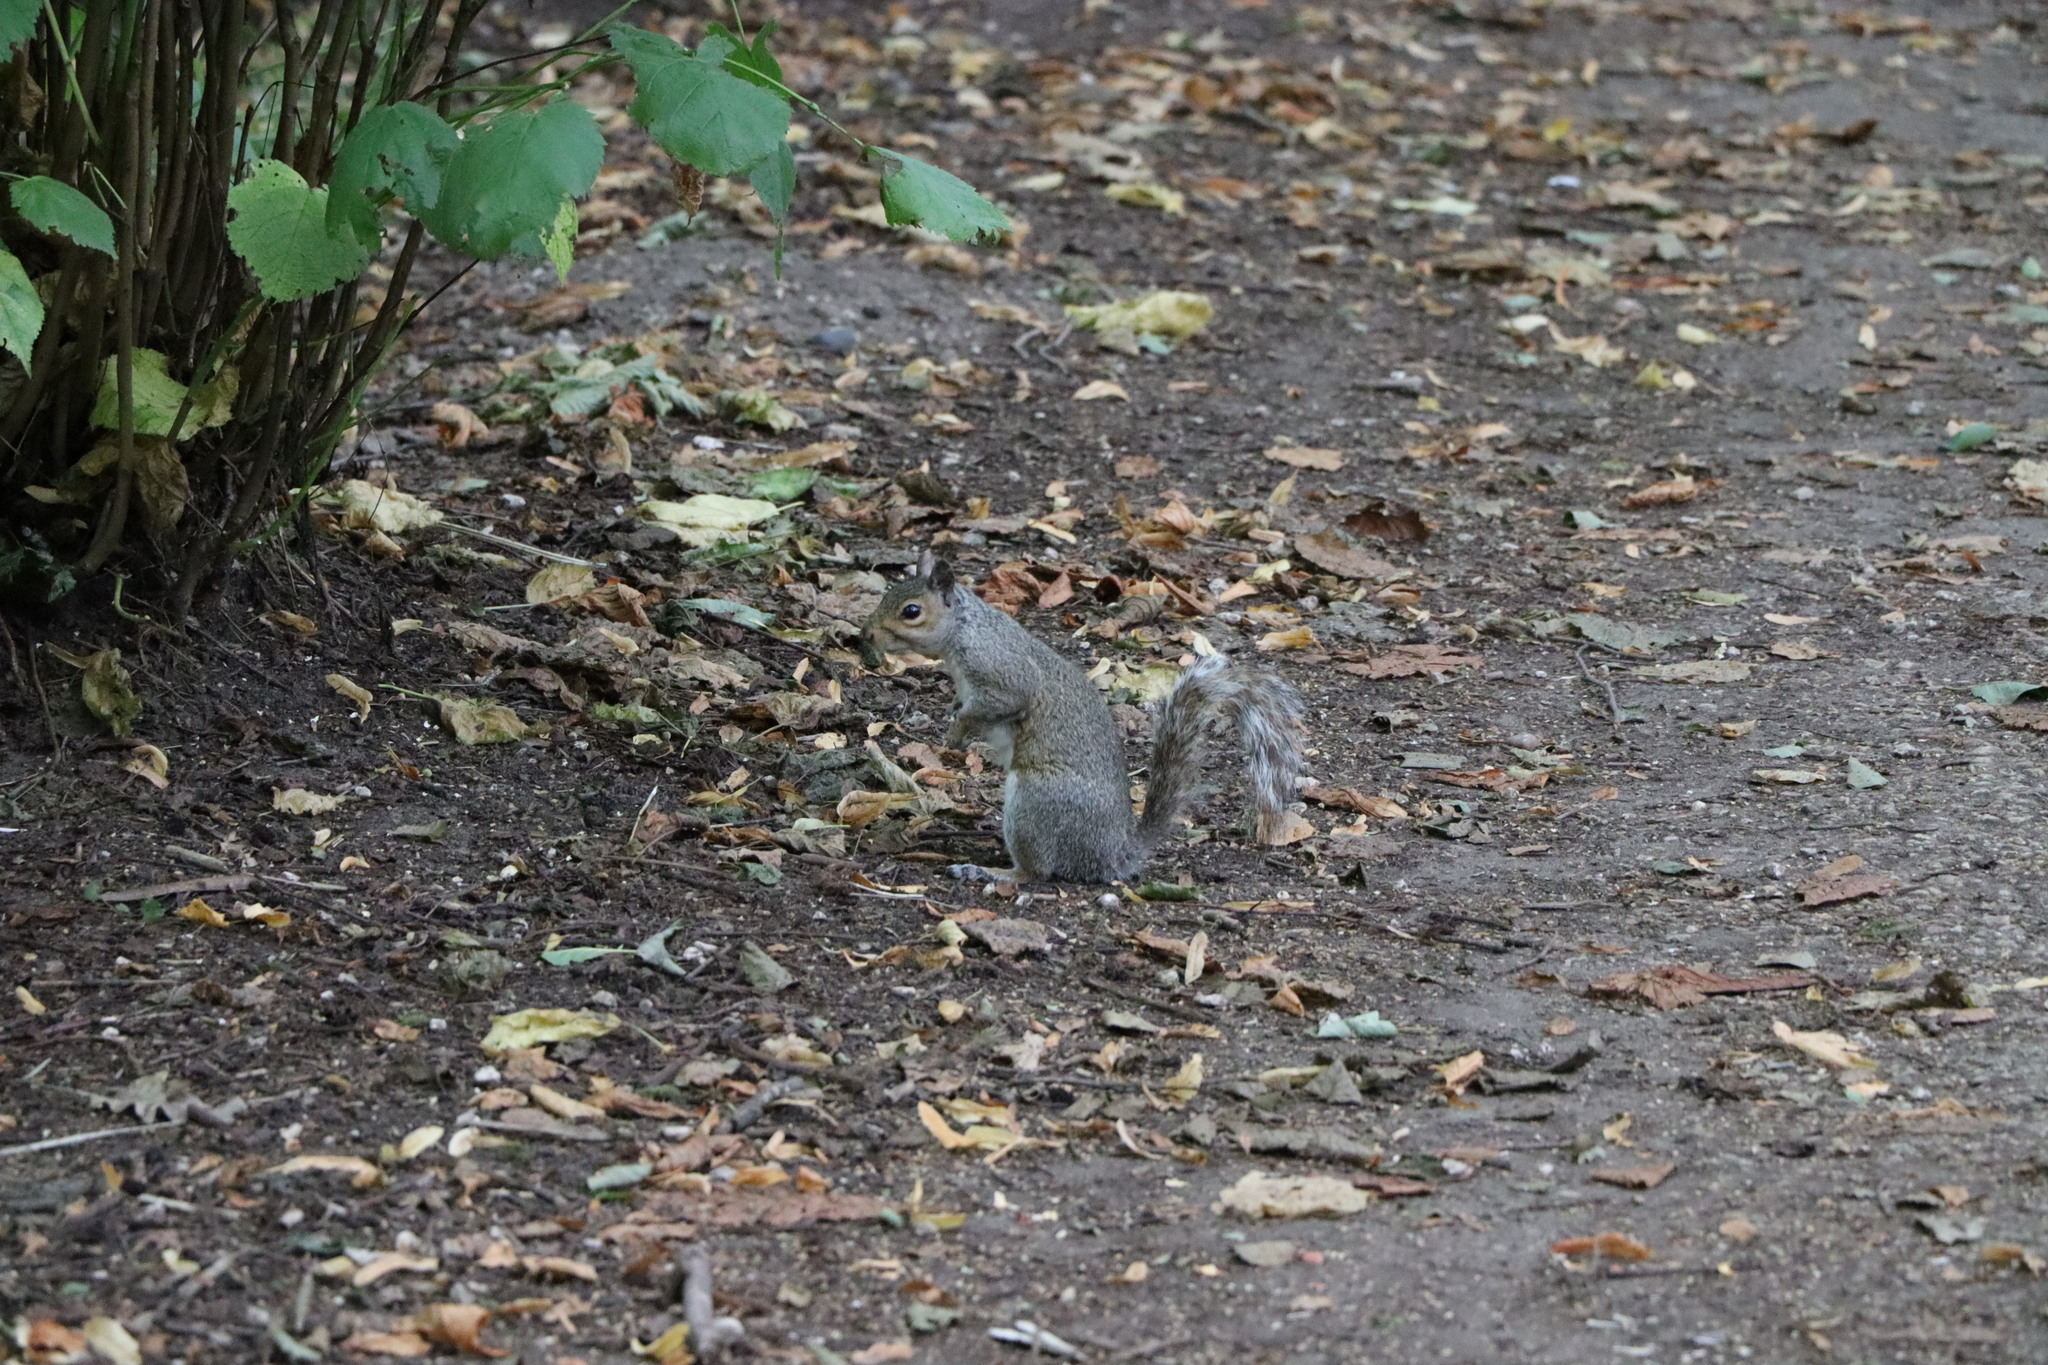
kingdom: Animalia
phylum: Chordata
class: Mammalia
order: Rodentia
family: Sciuridae
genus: Sciurus
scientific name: Sciurus carolinensis
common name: Eastern gray squirrel
